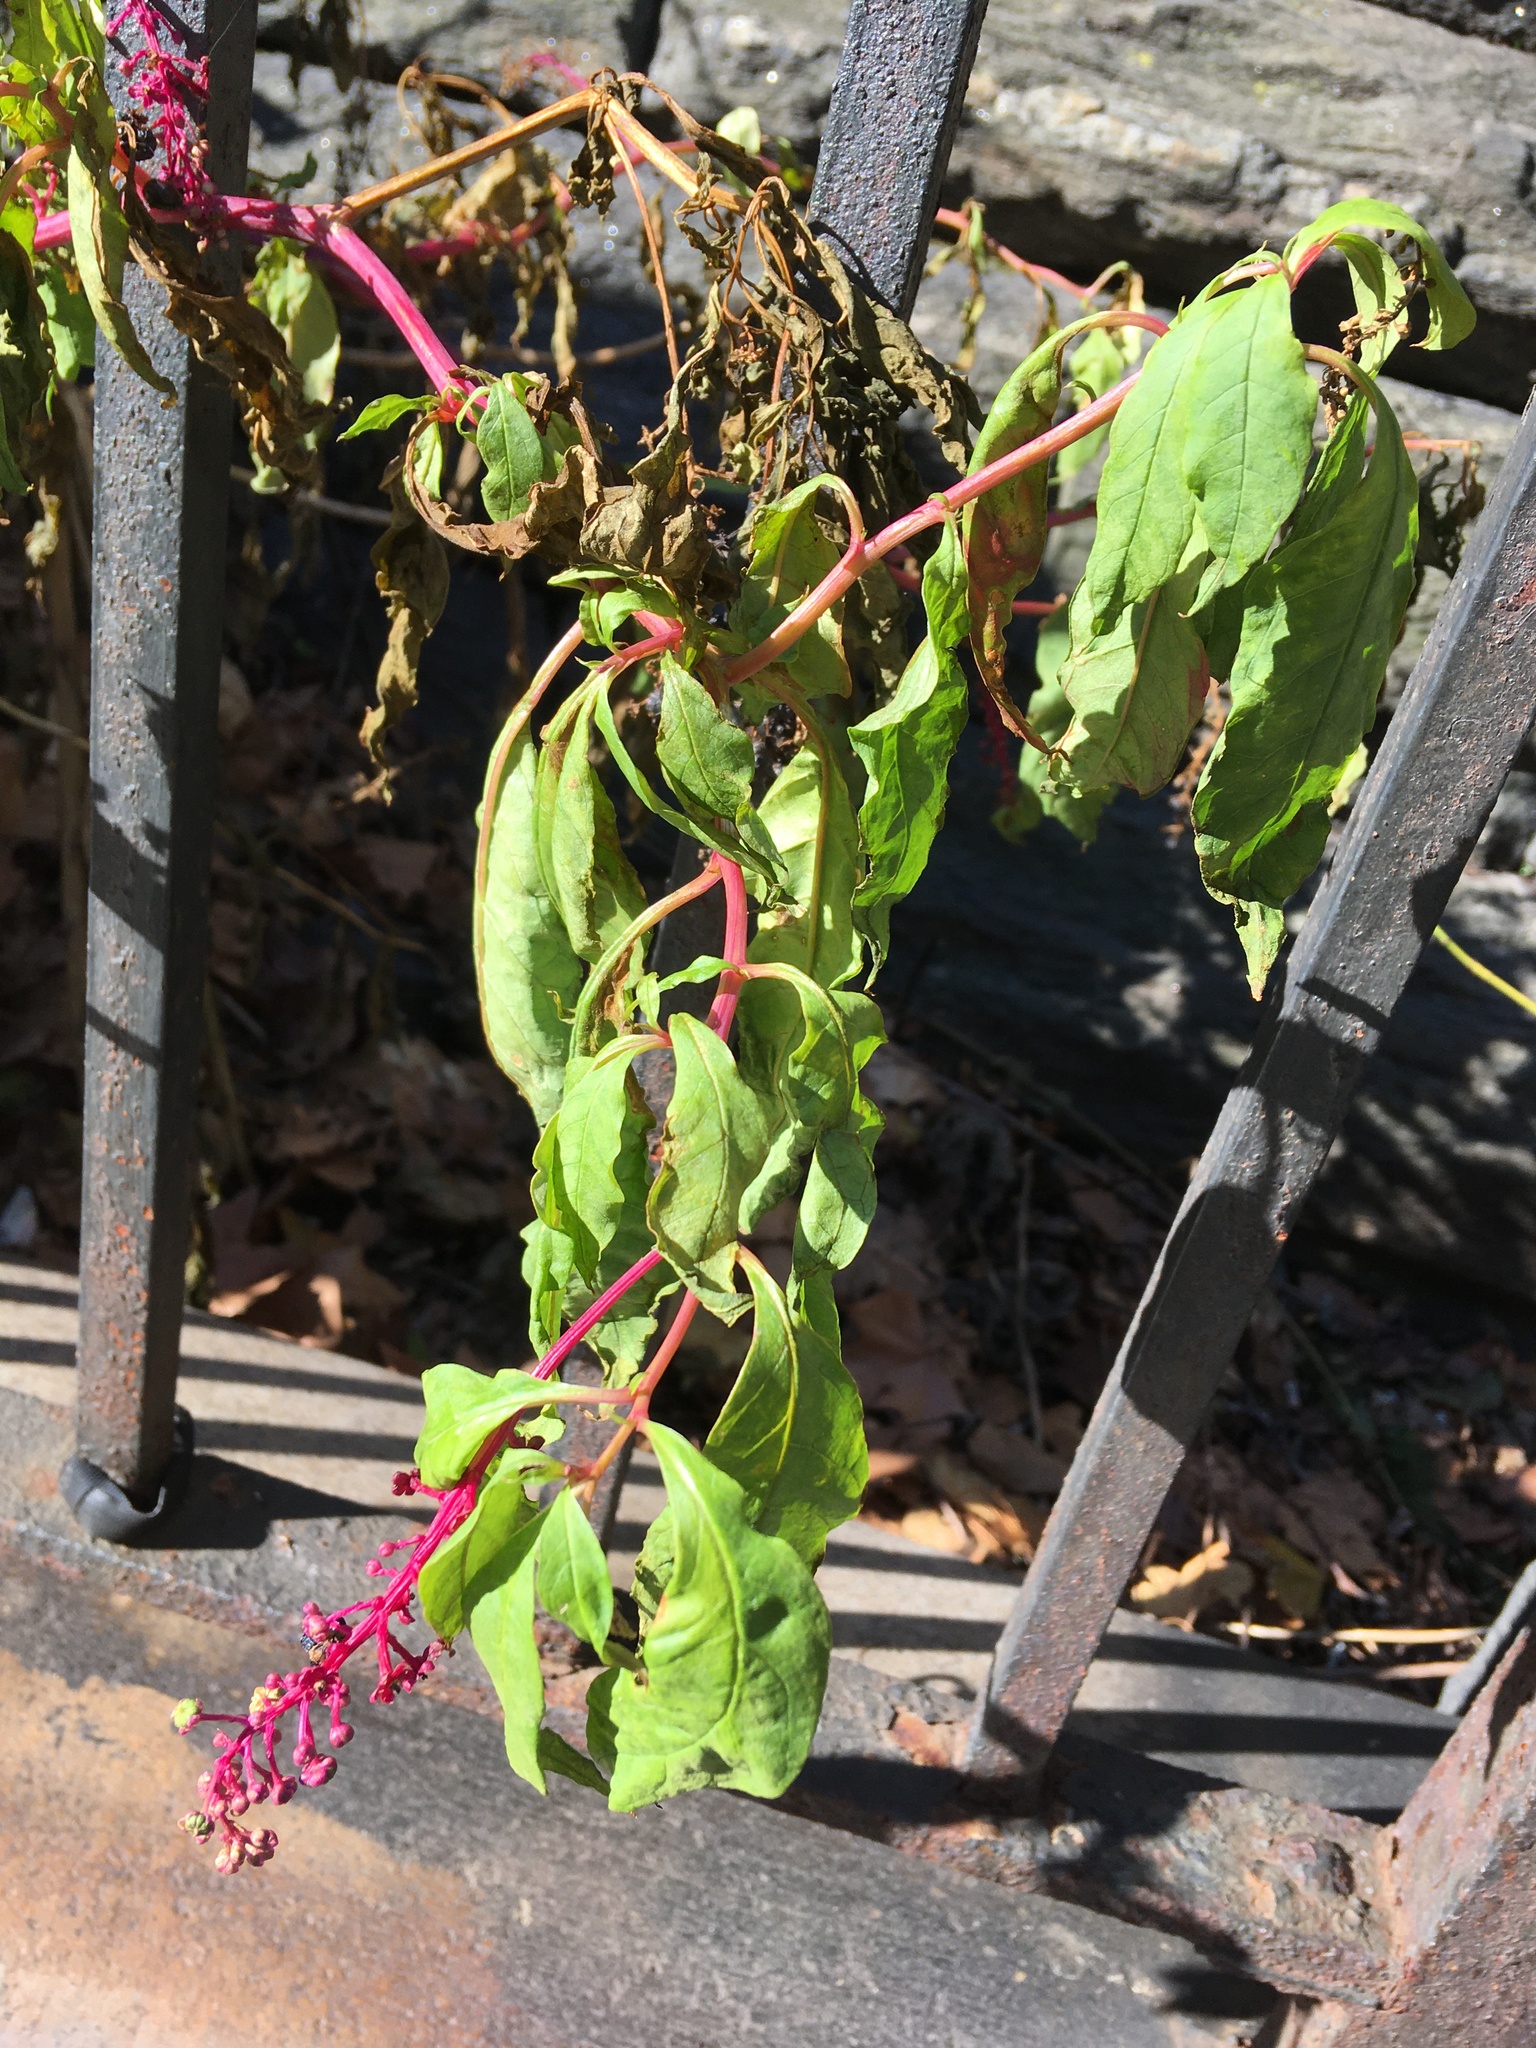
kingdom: Plantae
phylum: Tracheophyta
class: Magnoliopsida
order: Caryophyllales
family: Phytolaccaceae
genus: Phytolacca
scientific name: Phytolacca americana
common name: American pokeweed
